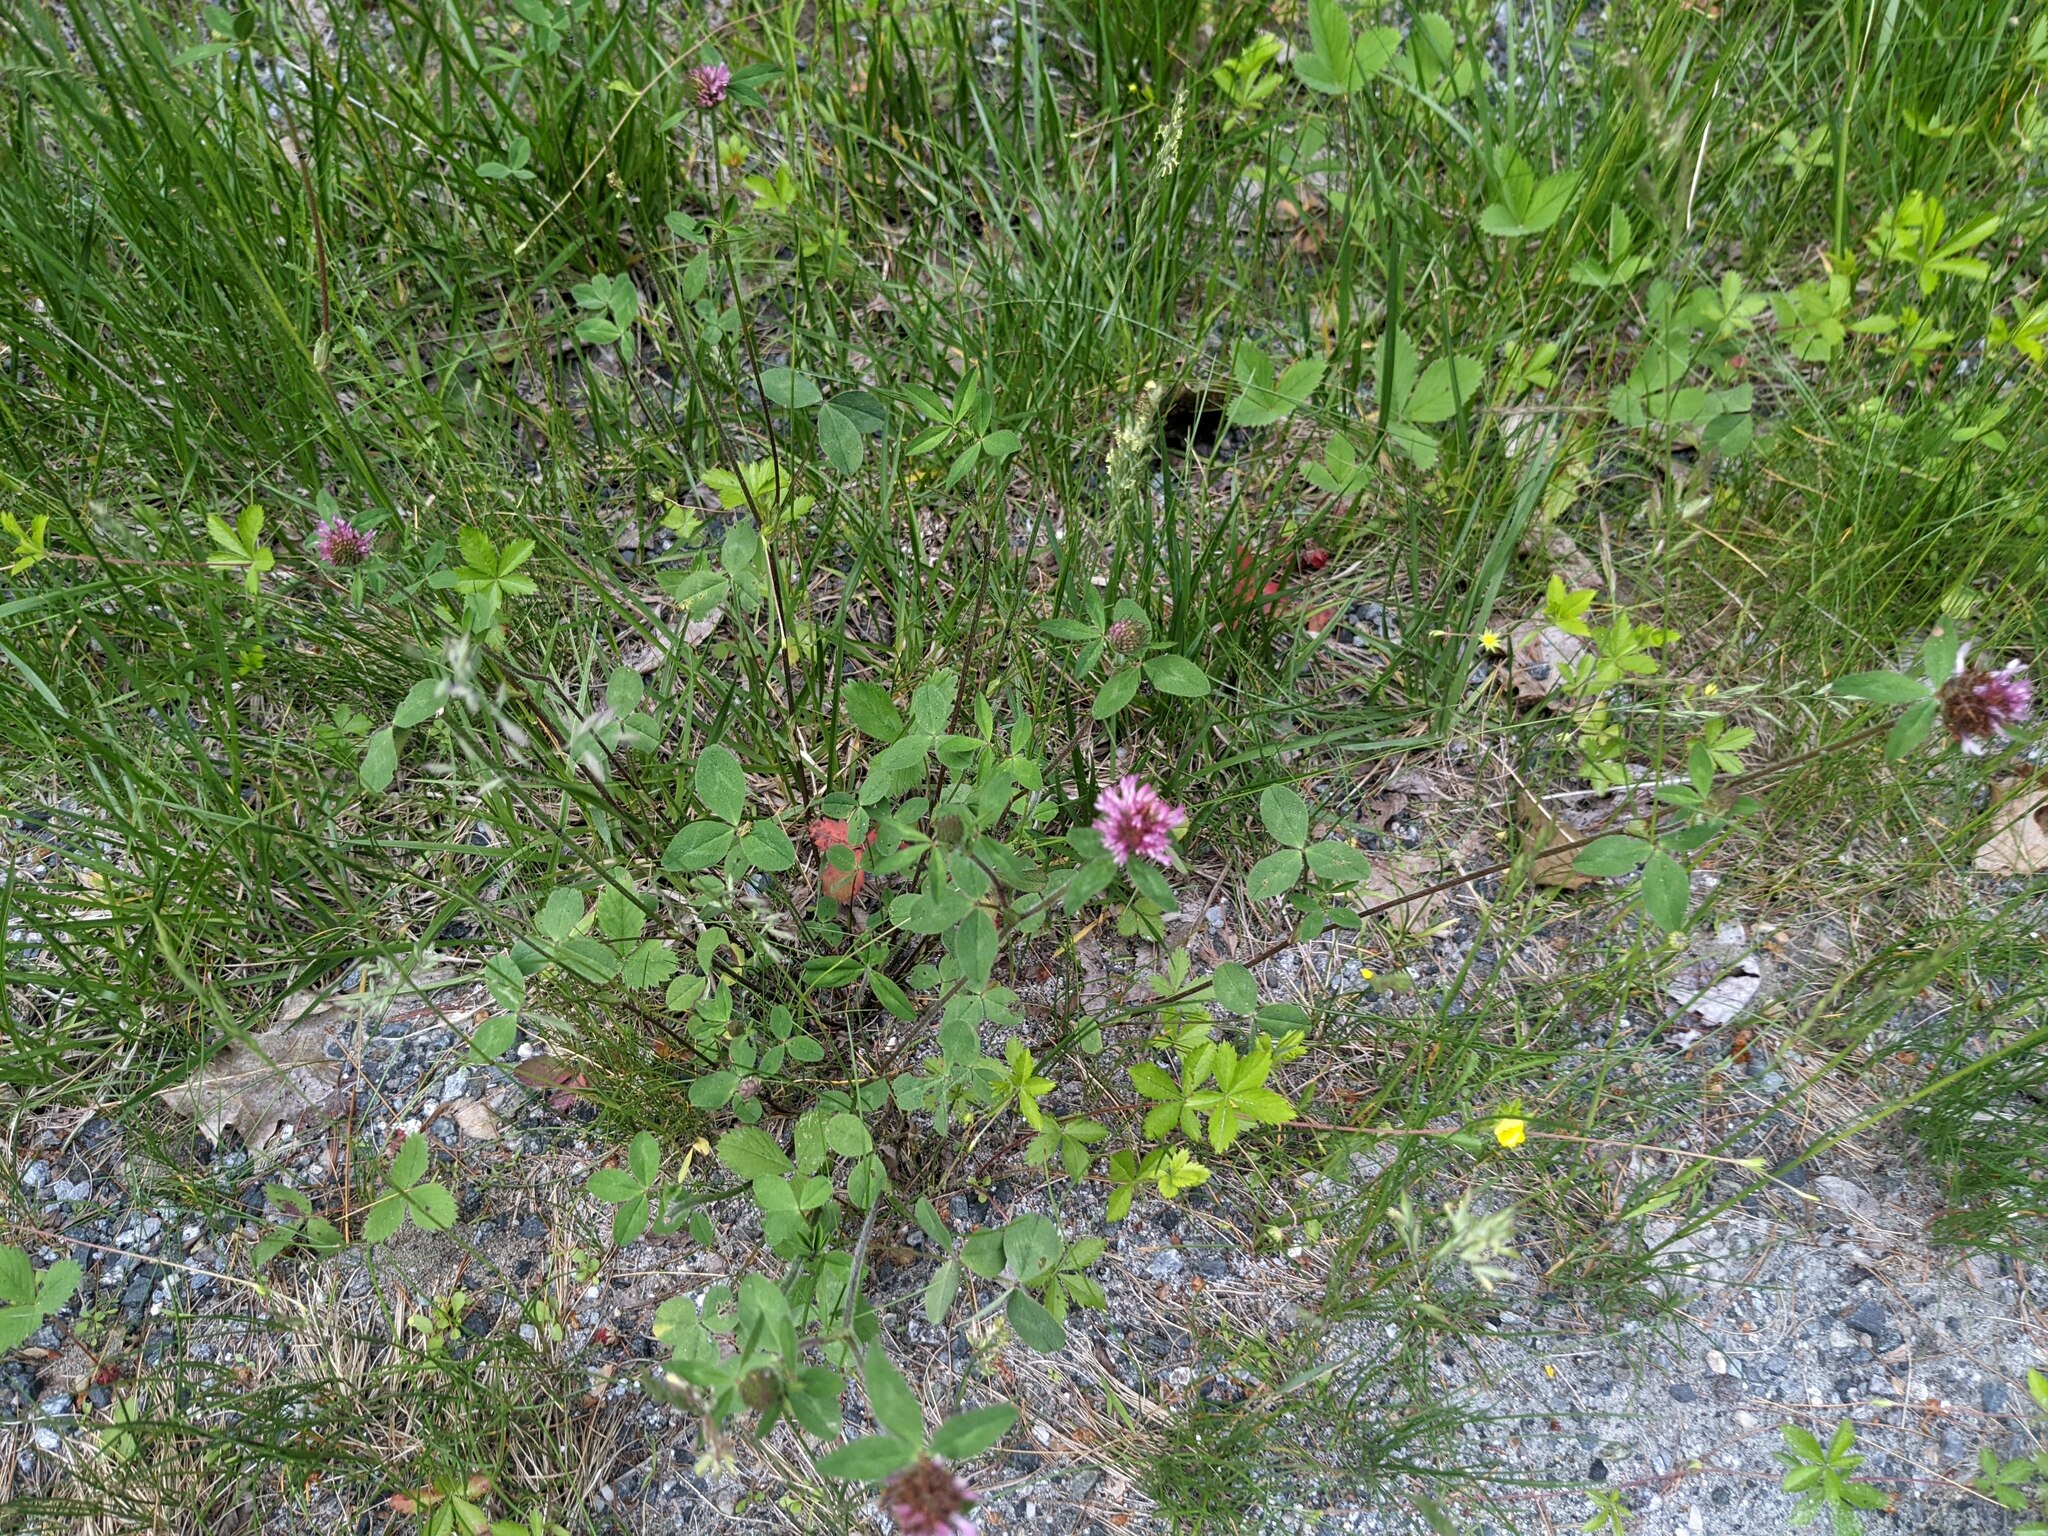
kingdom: Plantae
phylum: Tracheophyta
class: Magnoliopsida
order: Fabales
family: Fabaceae
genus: Trifolium
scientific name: Trifolium pratense
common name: Red clover
